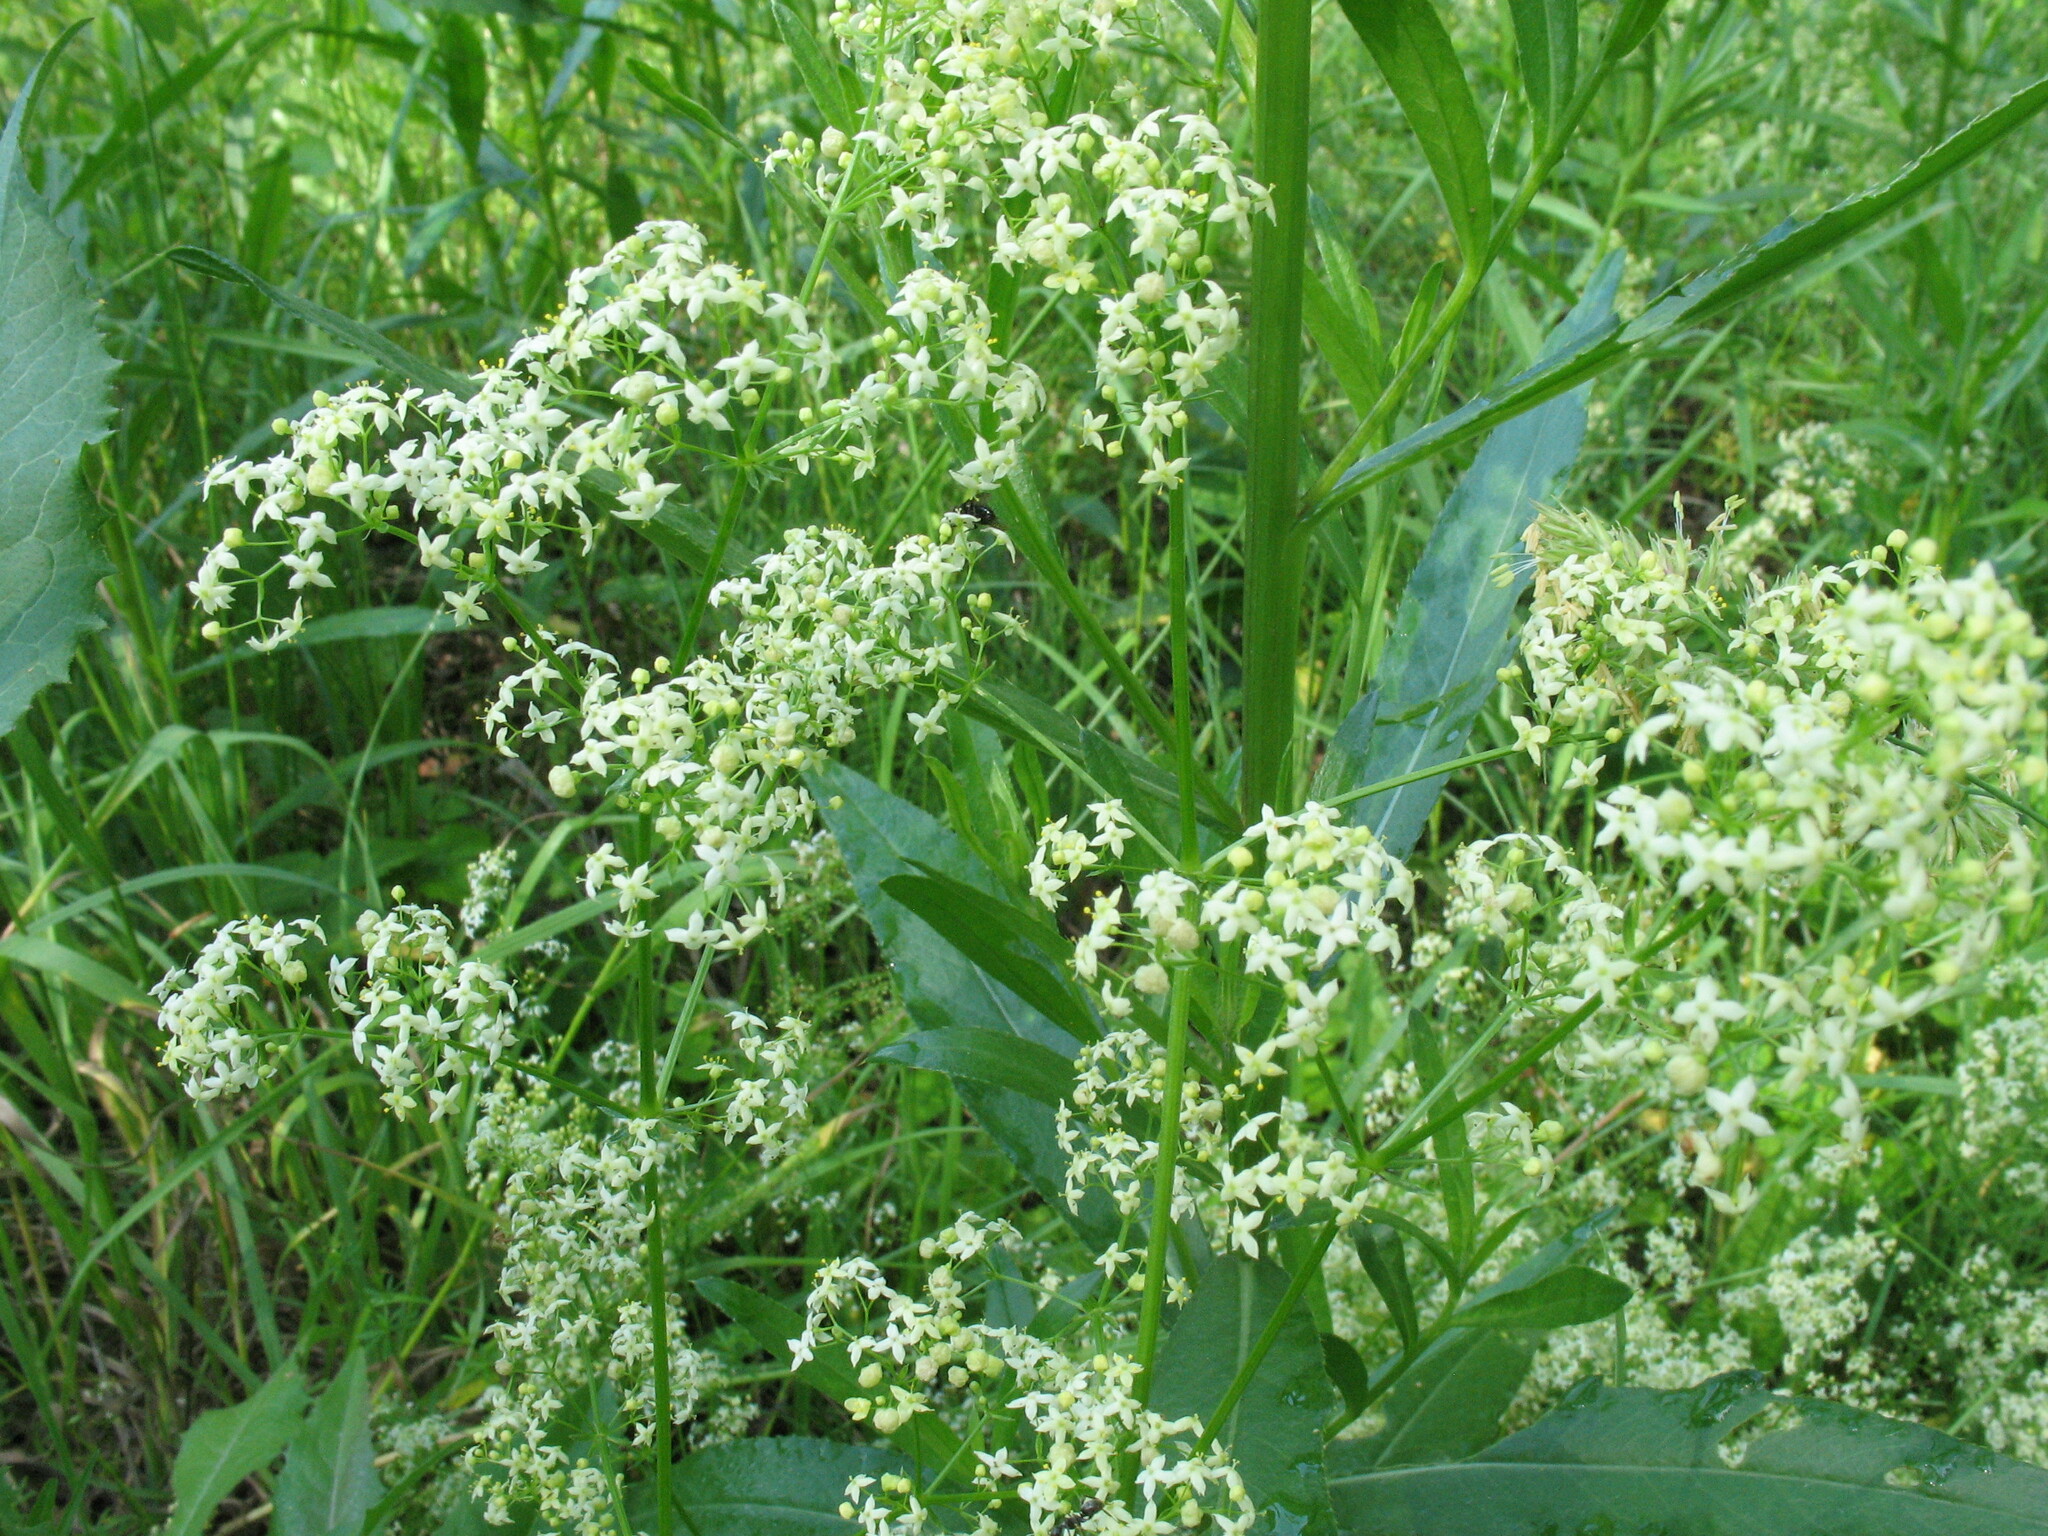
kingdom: Plantae
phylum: Tracheophyta
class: Magnoliopsida
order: Gentianales
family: Rubiaceae
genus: Galium
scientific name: Galium mollugo
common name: Hedge bedstraw
